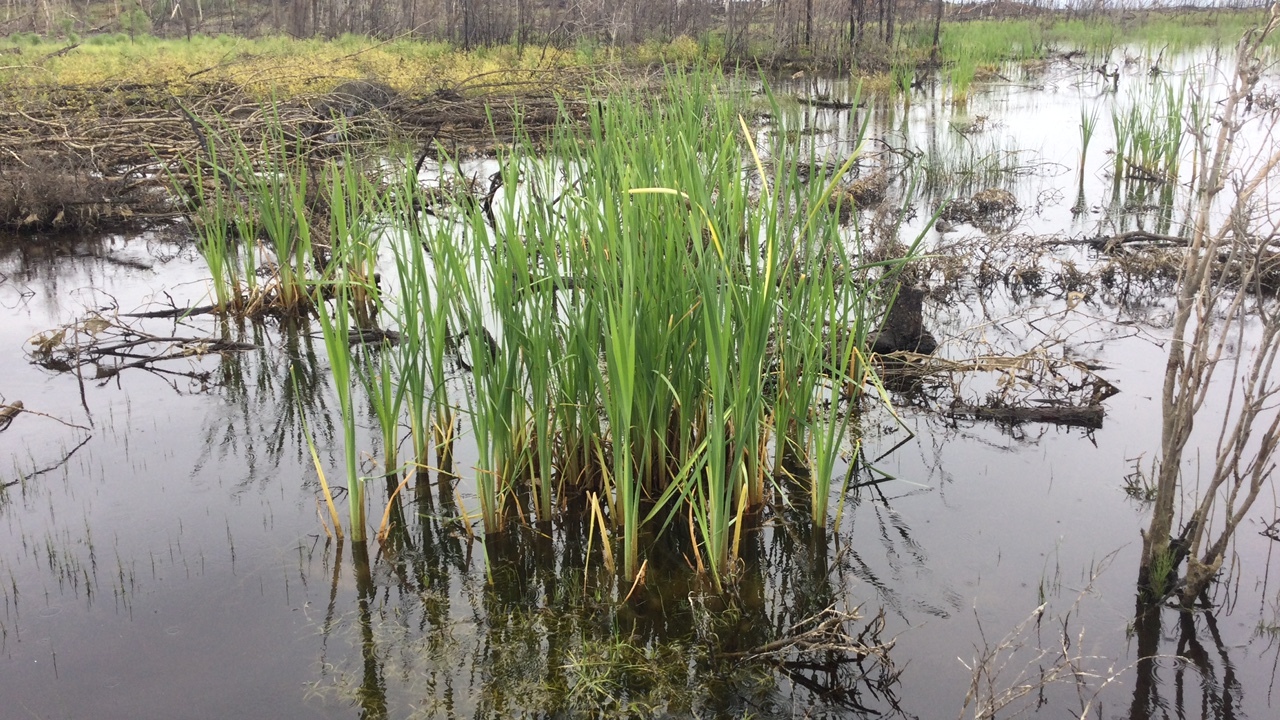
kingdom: Plantae
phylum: Tracheophyta
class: Liliopsida
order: Poales
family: Typhaceae
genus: Typha
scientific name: Typha latifolia
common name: Broadleaf cattail
